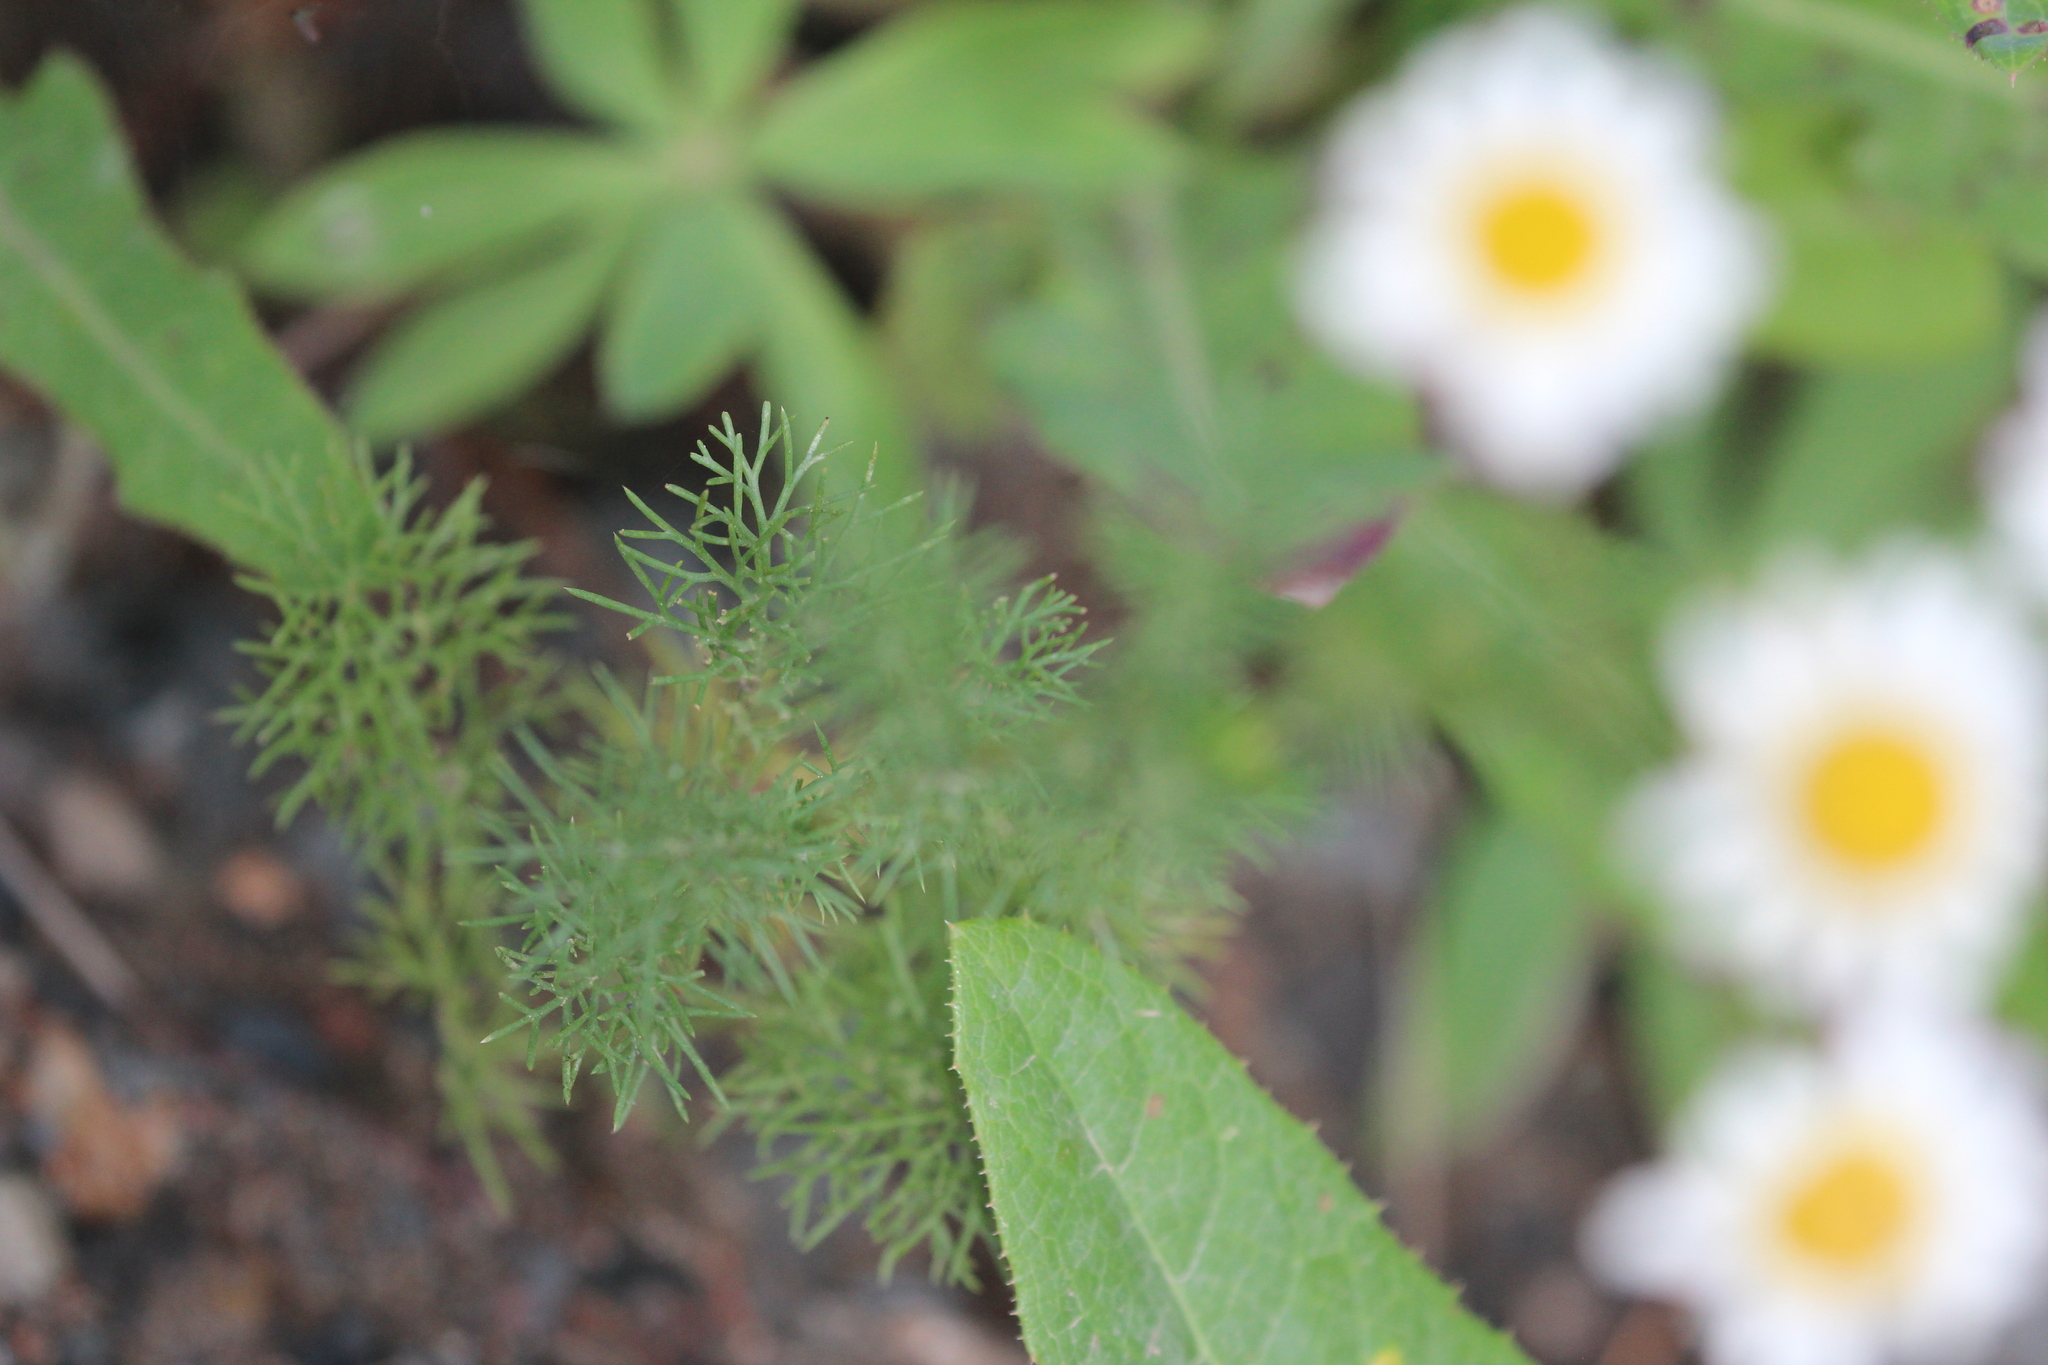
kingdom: Plantae
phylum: Tracheophyta
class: Magnoliopsida
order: Asterales
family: Asteraceae
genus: Tripleurospermum
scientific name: Tripleurospermum inodorum
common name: Scentless mayweed
